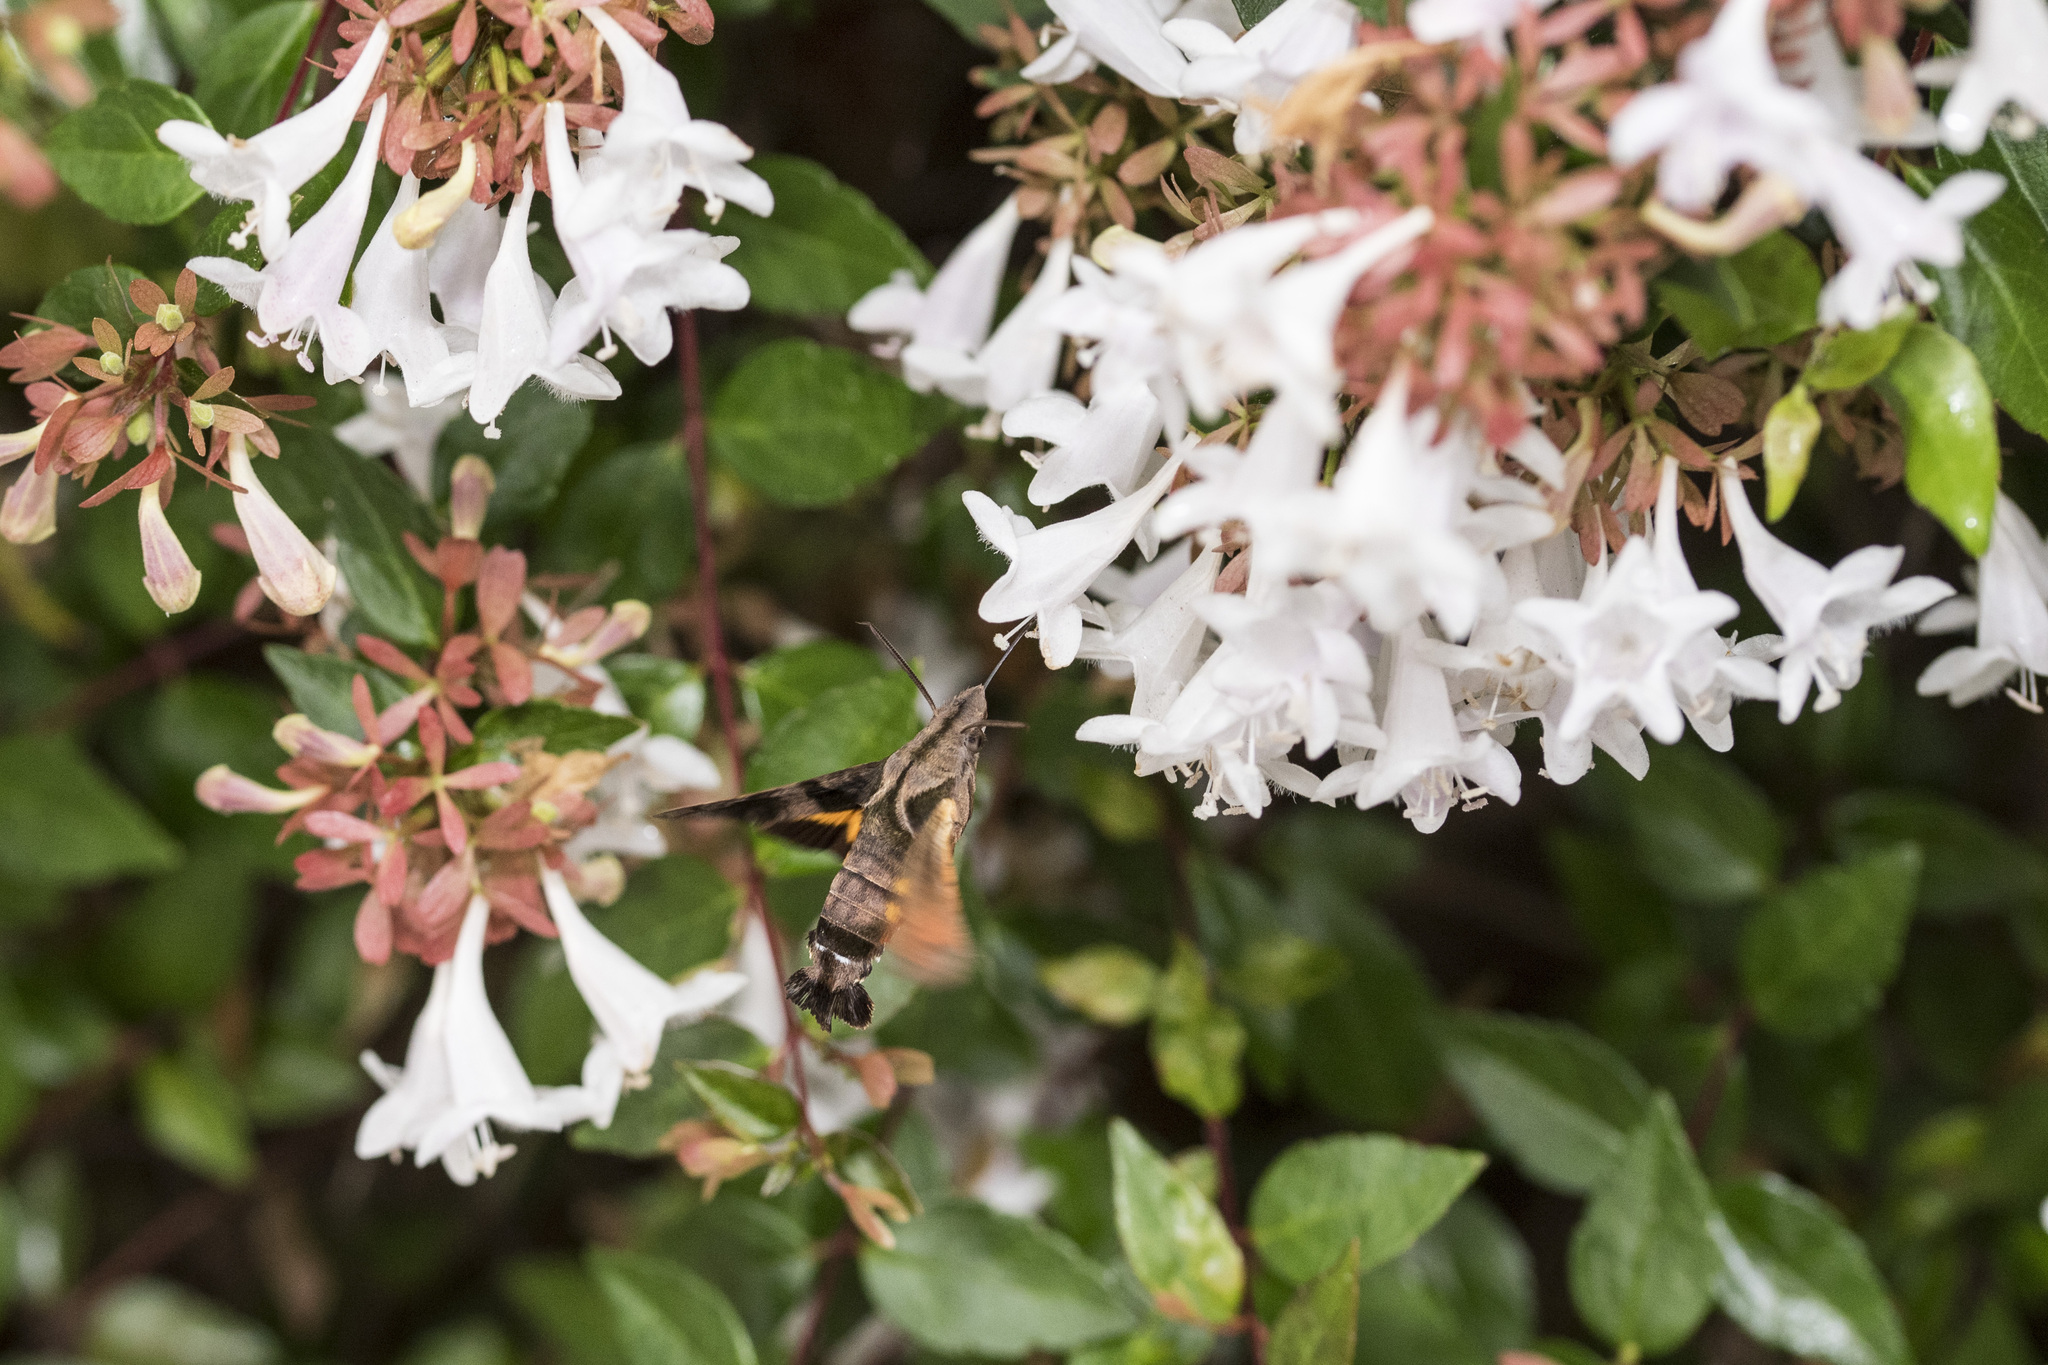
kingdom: Animalia
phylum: Arthropoda
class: Insecta
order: Lepidoptera
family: Sphingidae
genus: Macroglossum
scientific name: Macroglossum pyrrhosticta
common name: Hummingbird hawk moth
